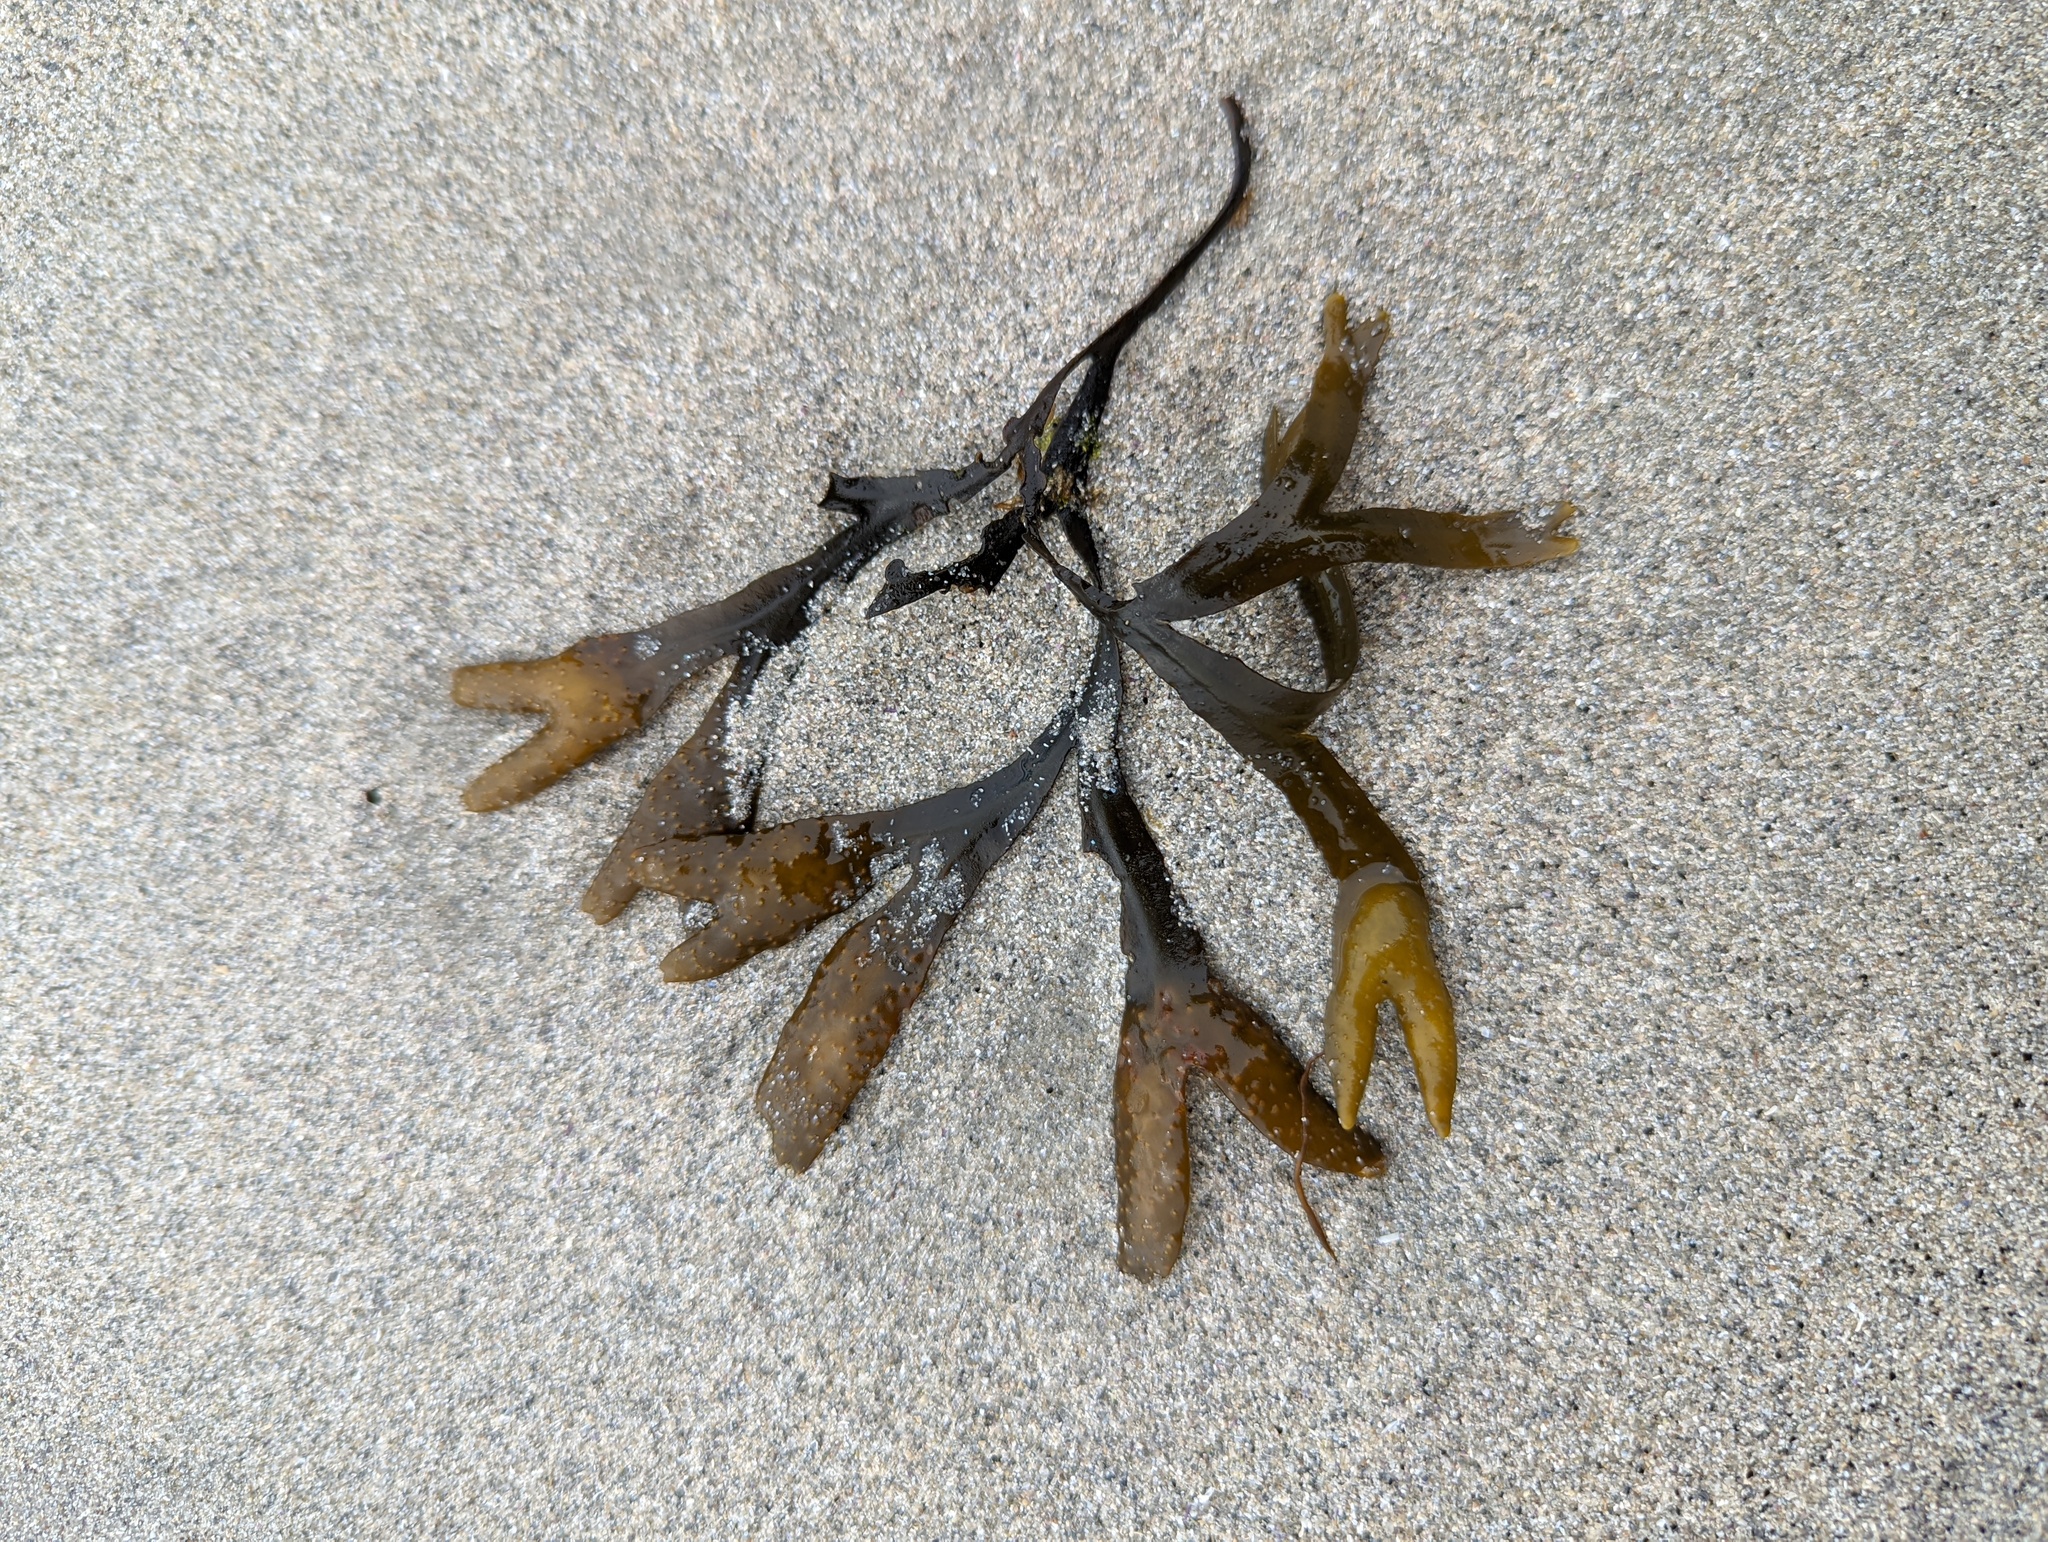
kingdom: Chromista
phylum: Ochrophyta
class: Phaeophyceae
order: Fucales
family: Fucaceae
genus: Fucus
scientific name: Fucus distichus
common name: Rockweed
